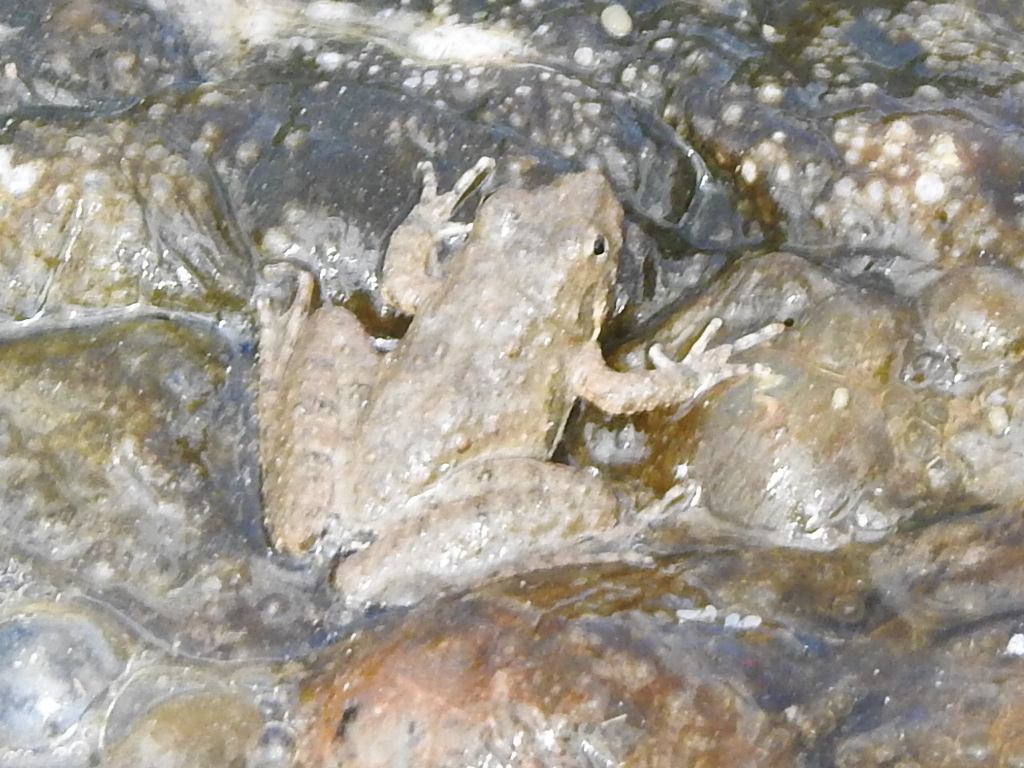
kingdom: Animalia
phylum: Chordata
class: Amphibia
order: Anura
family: Hylidae
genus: Acris
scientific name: Acris blanchardi
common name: Blanchard's cricket frog
